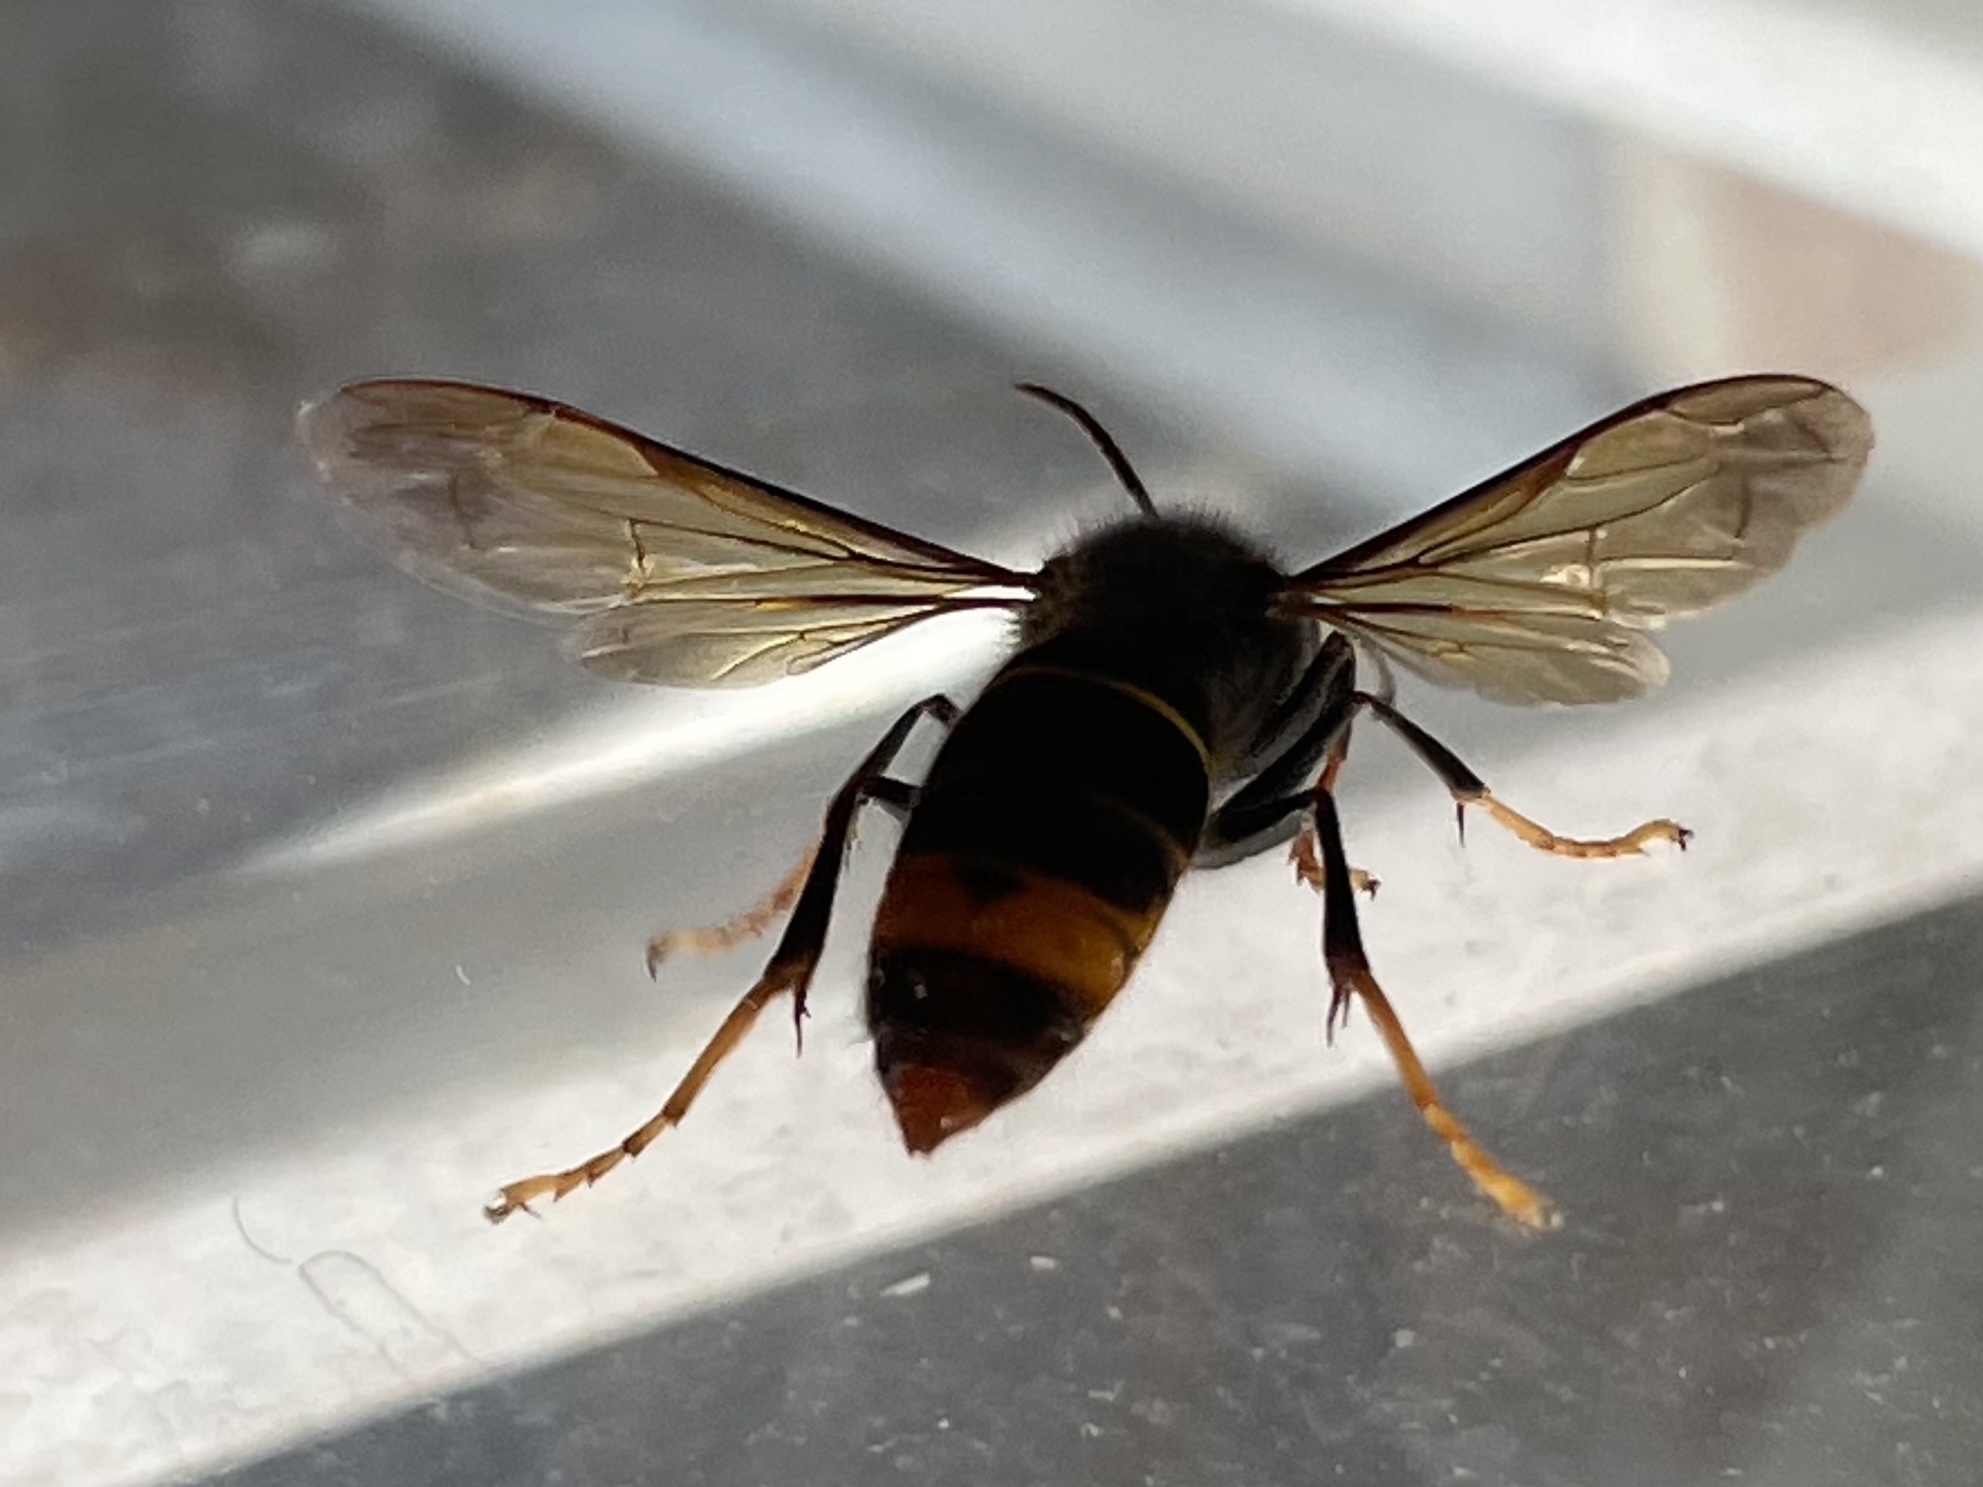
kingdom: Animalia
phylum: Arthropoda
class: Insecta
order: Hymenoptera
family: Vespidae
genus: Vespa
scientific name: Vespa velutina
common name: Asian hornet
